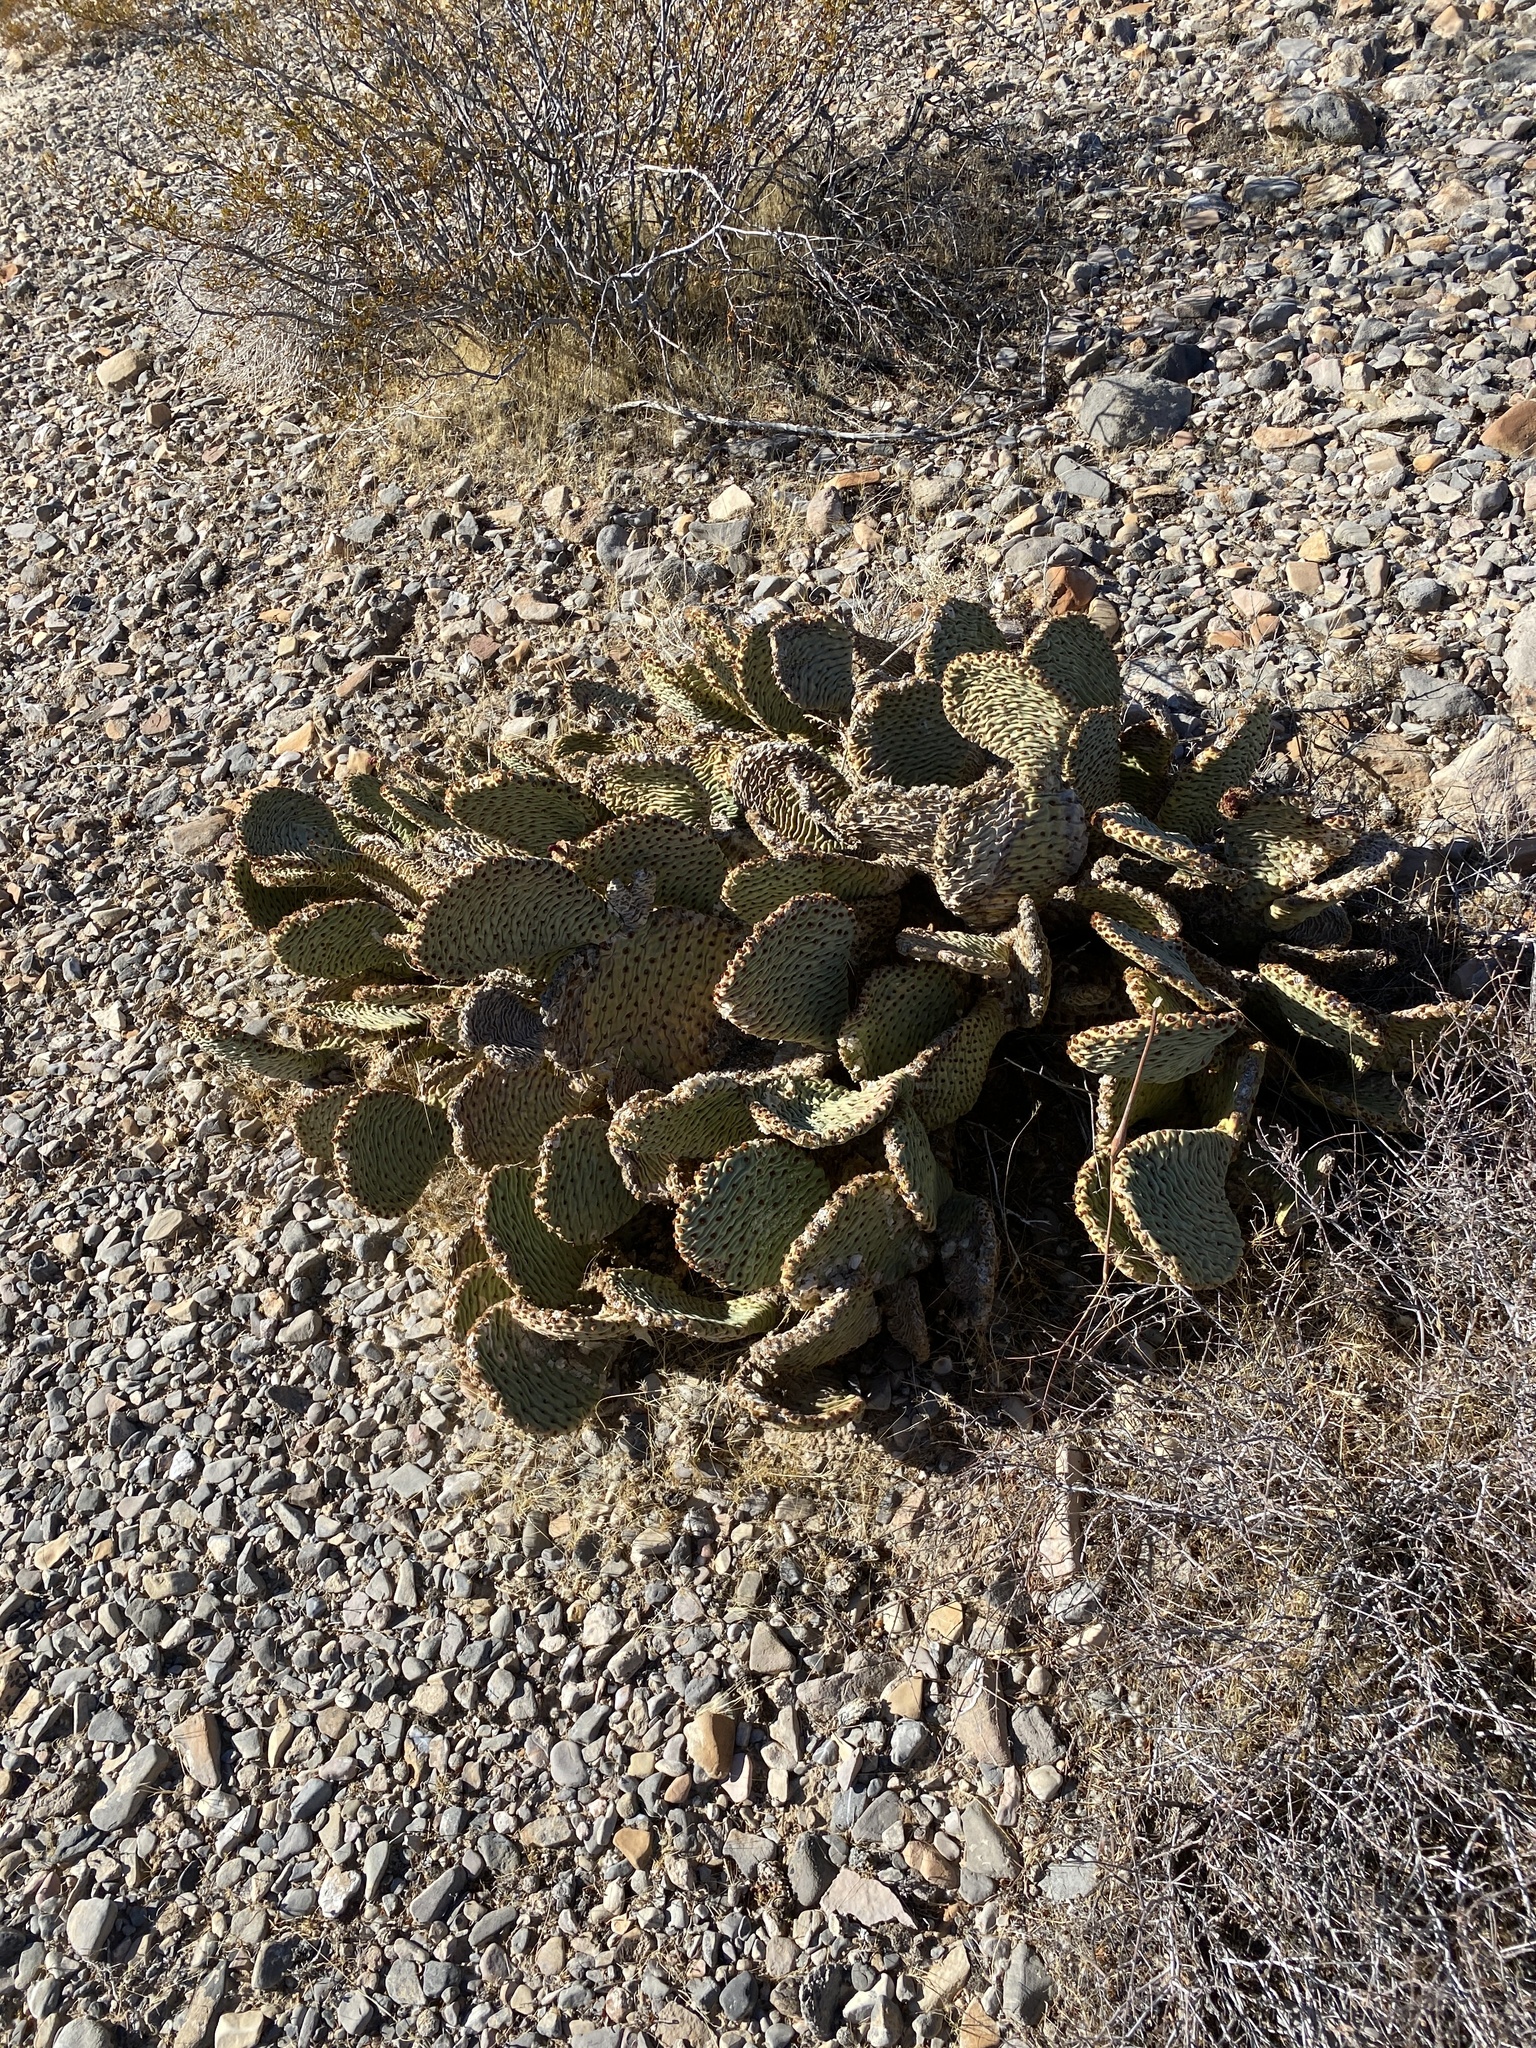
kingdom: Plantae
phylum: Tracheophyta
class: Magnoliopsida
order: Caryophyllales
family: Cactaceae
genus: Opuntia
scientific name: Opuntia basilaris
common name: Beavertail prickly-pear
